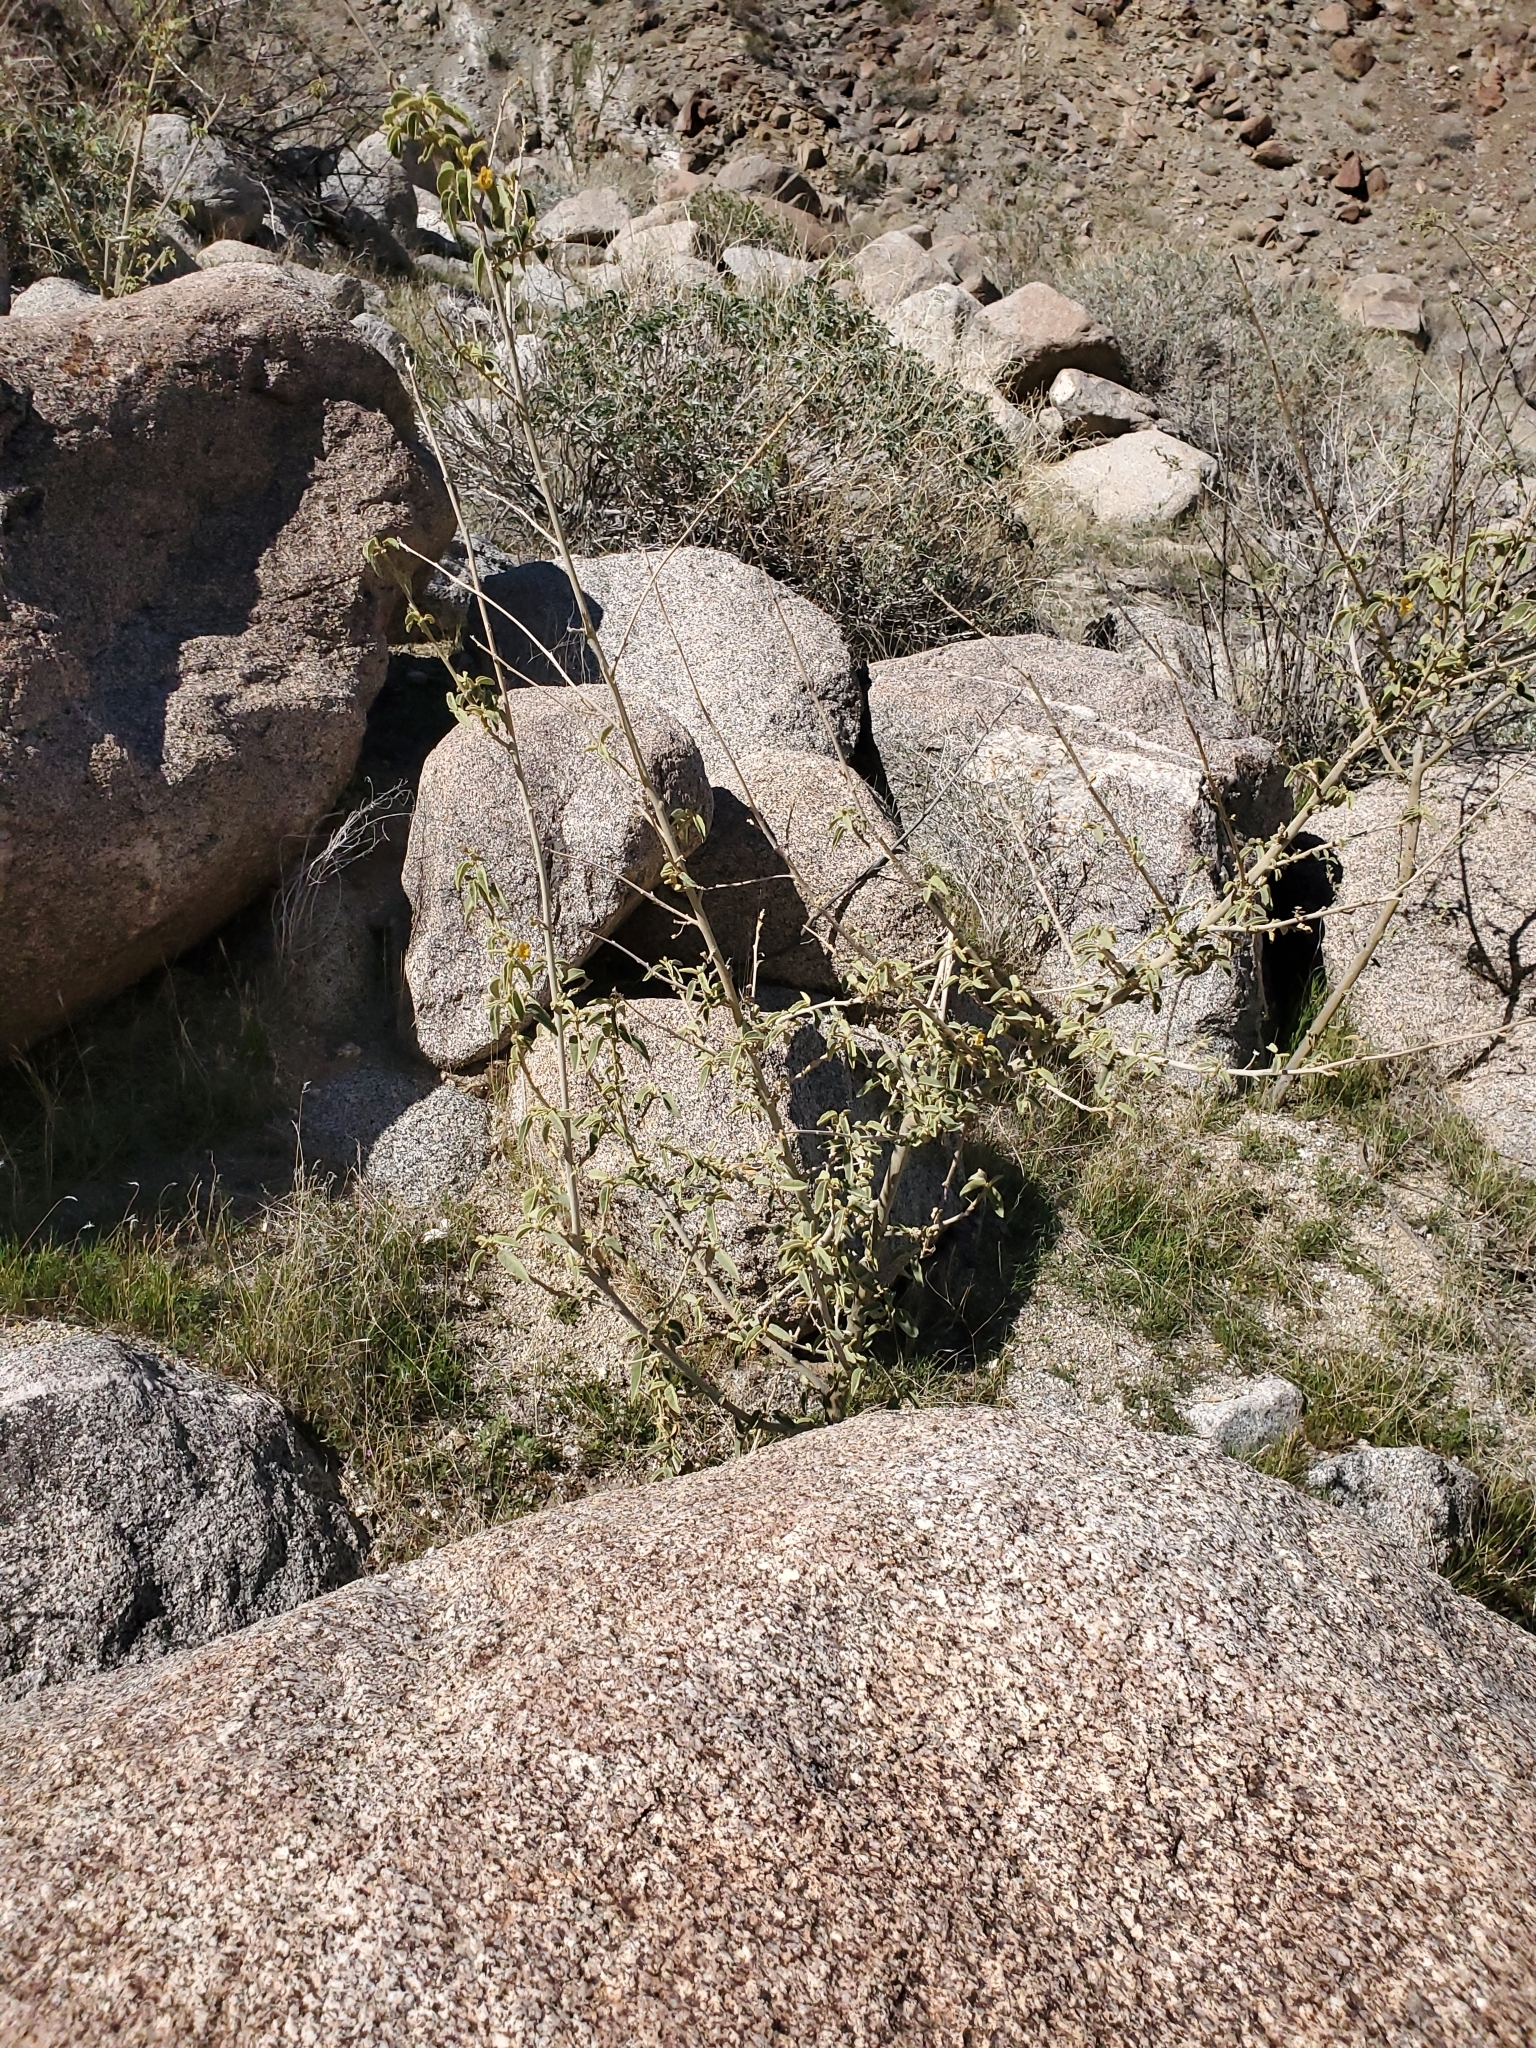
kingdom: Plantae
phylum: Tracheophyta
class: Magnoliopsida
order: Malvales
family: Malvaceae
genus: Horsfordia
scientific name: Horsfordia newberryi
